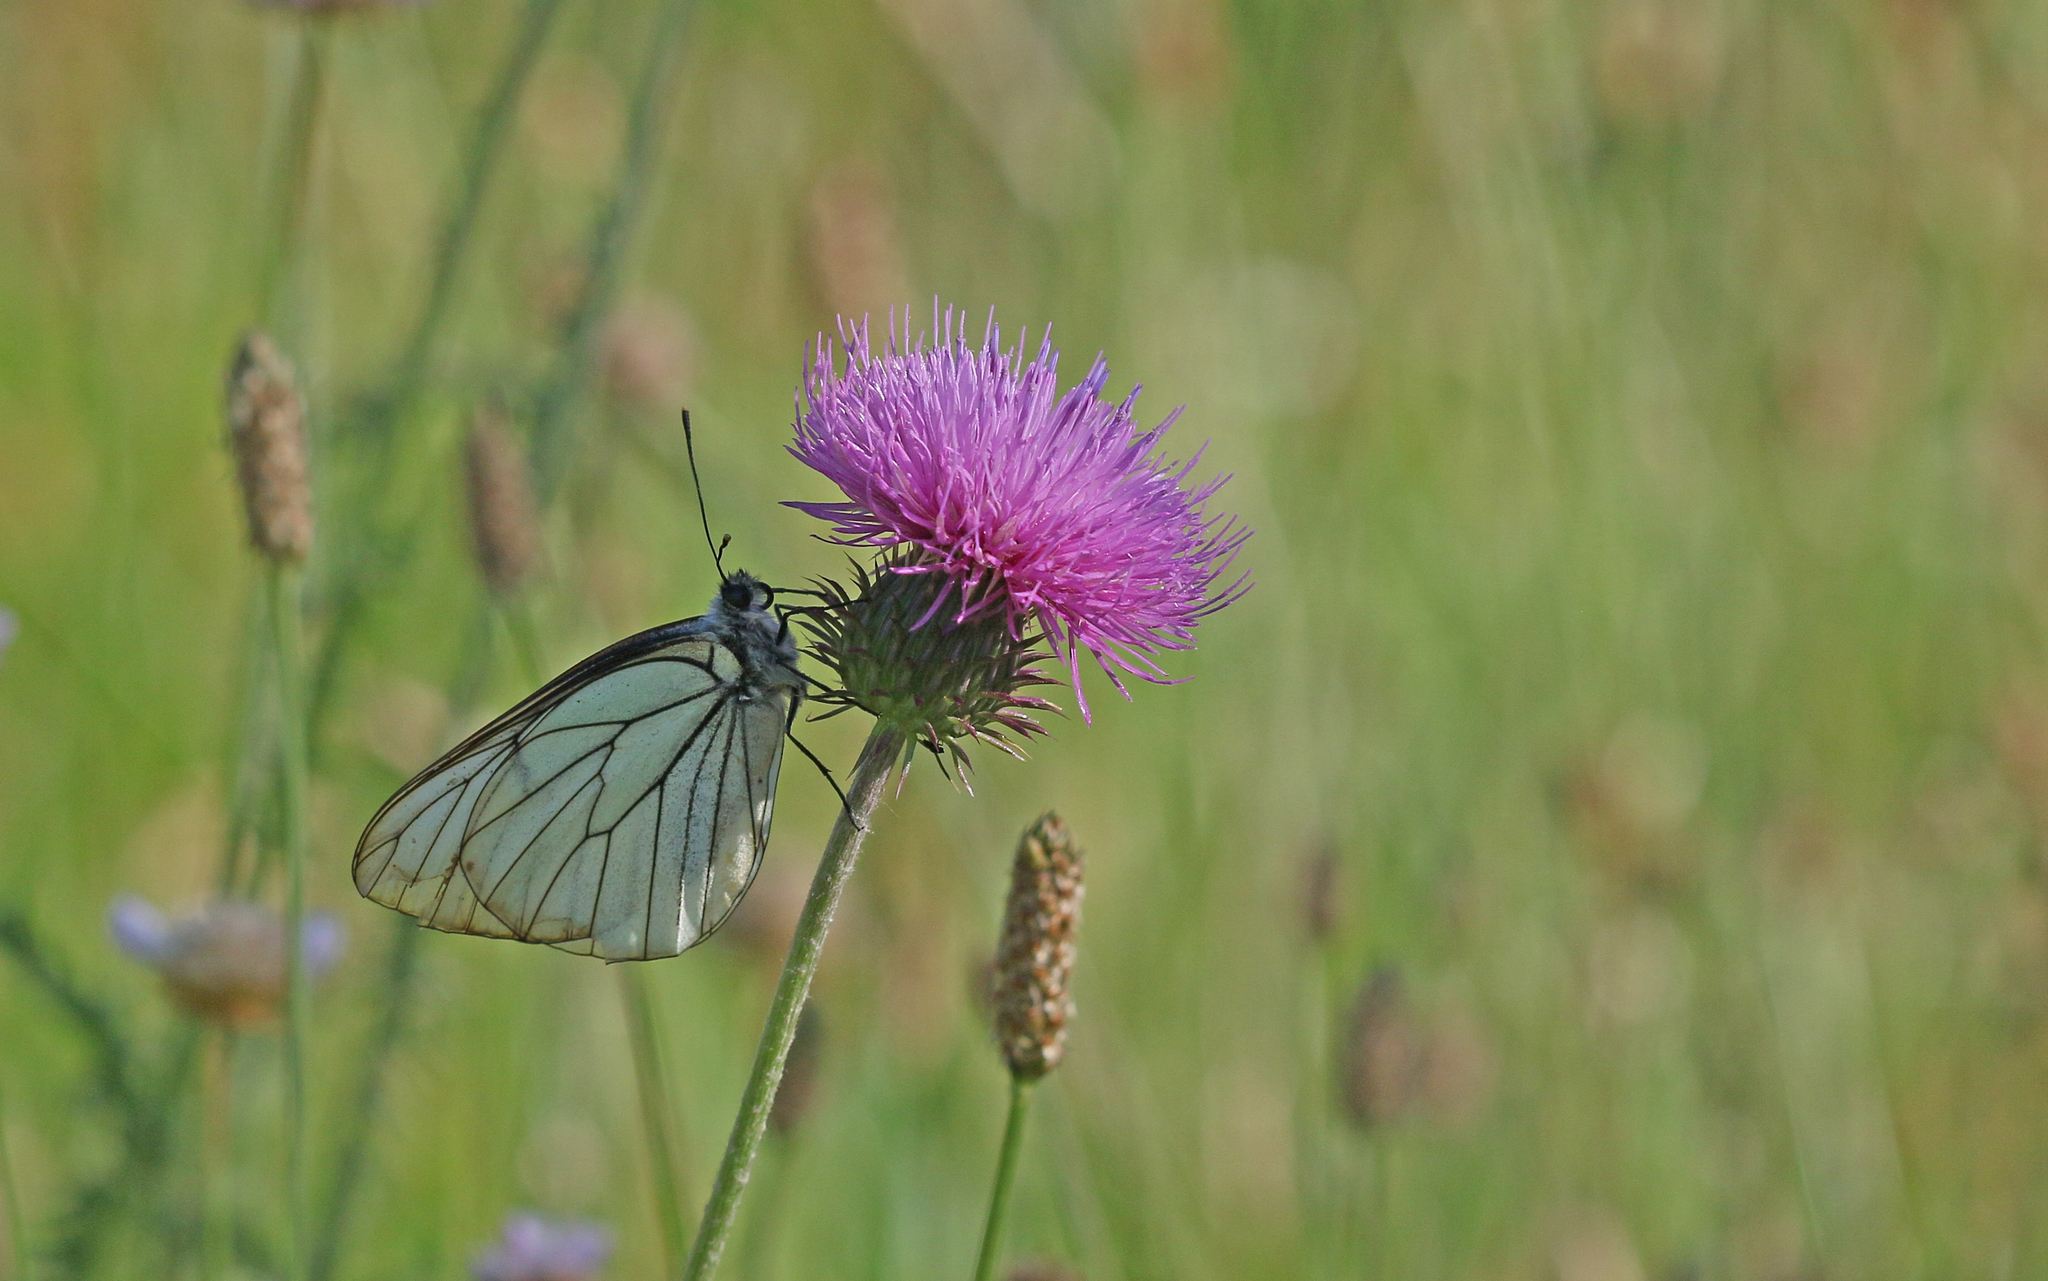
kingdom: Animalia
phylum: Arthropoda
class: Insecta
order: Lepidoptera
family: Pieridae
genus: Aporia
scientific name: Aporia crataegi
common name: Black-veined white
